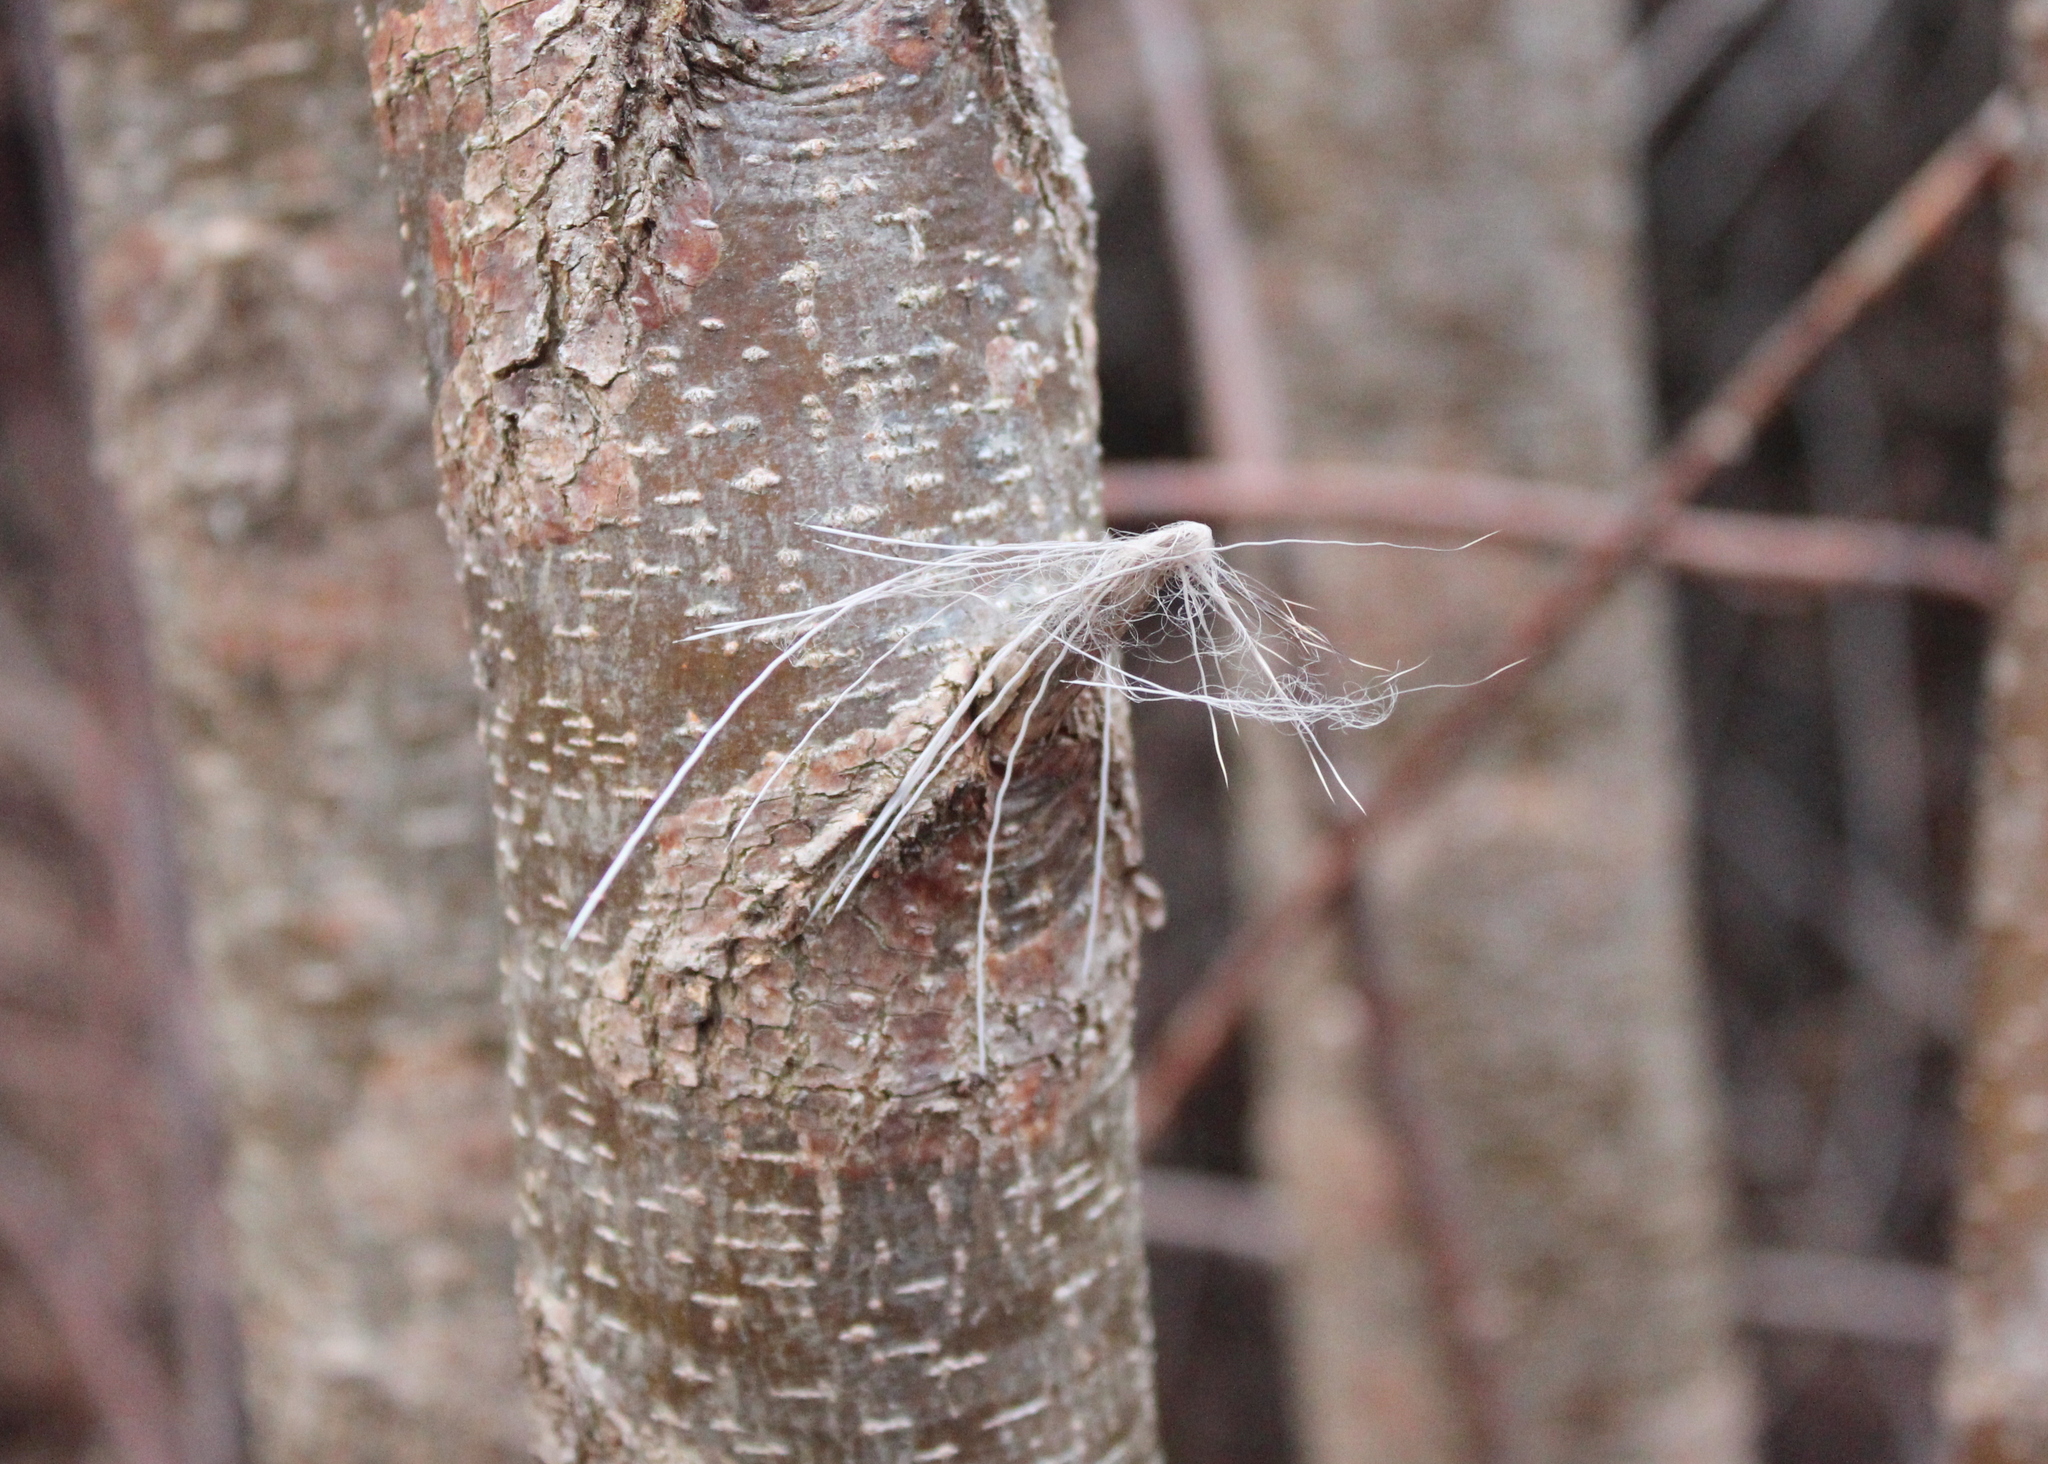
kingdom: Animalia
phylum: Chordata
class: Mammalia
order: Artiodactyla
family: Cervidae
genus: Odocoileus
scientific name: Odocoileus virginianus
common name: White-tailed deer
